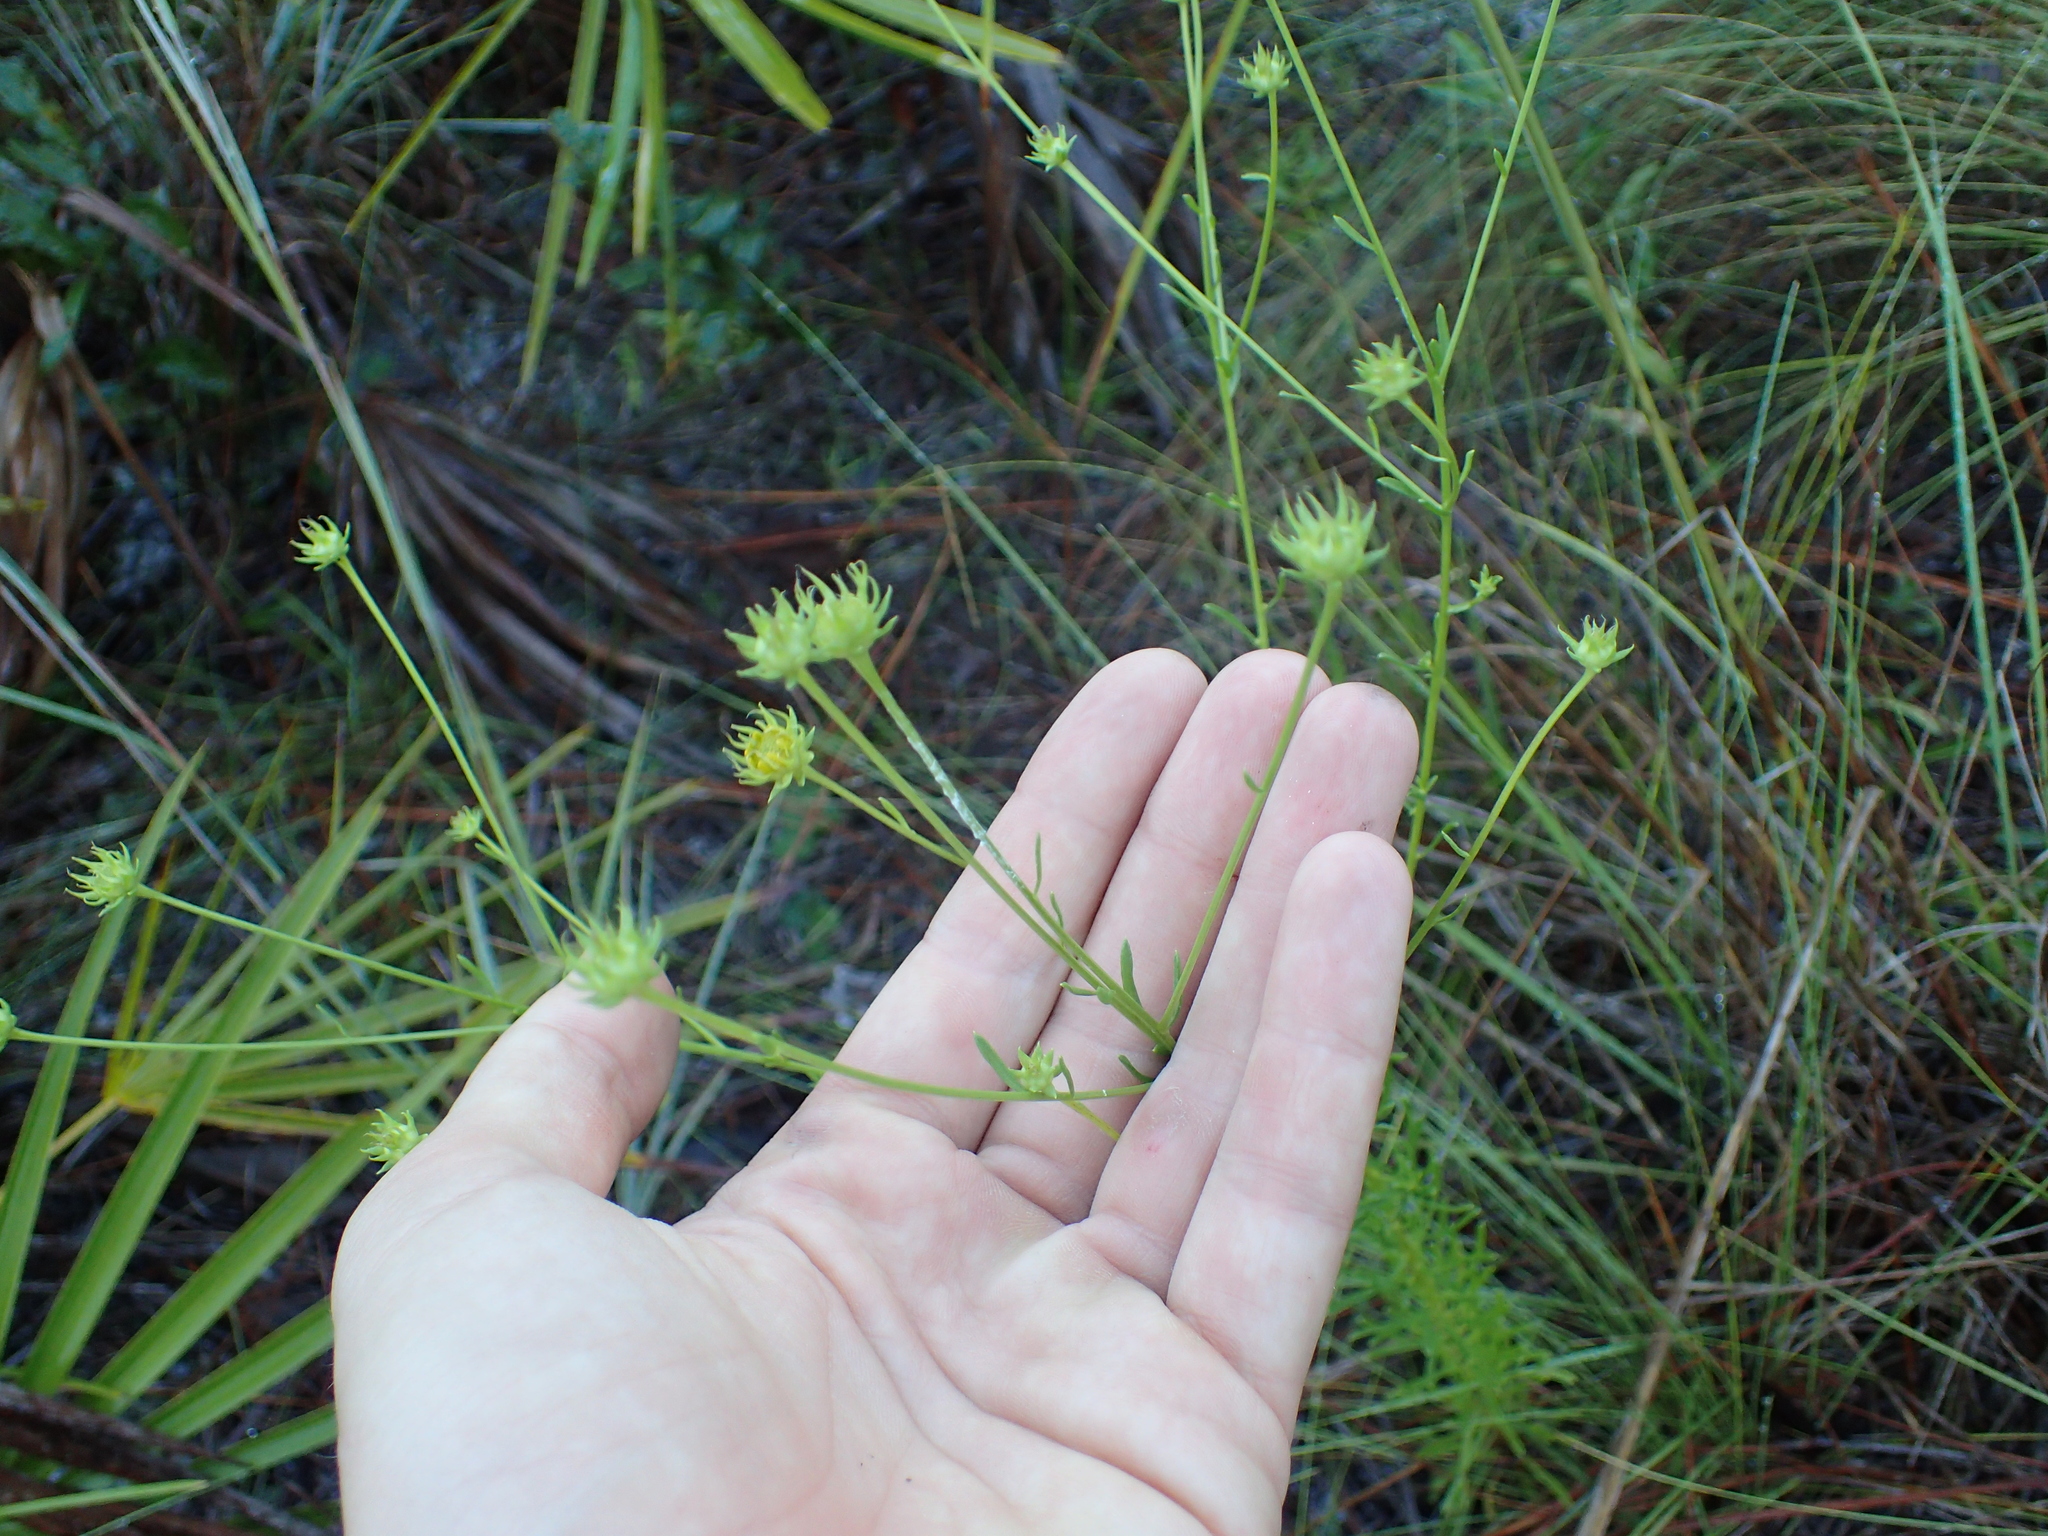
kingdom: Plantae
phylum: Tracheophyta
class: Magnoliopsida
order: Asterales
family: Asteraceae
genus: Balduina
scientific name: Balduina angustifolia
